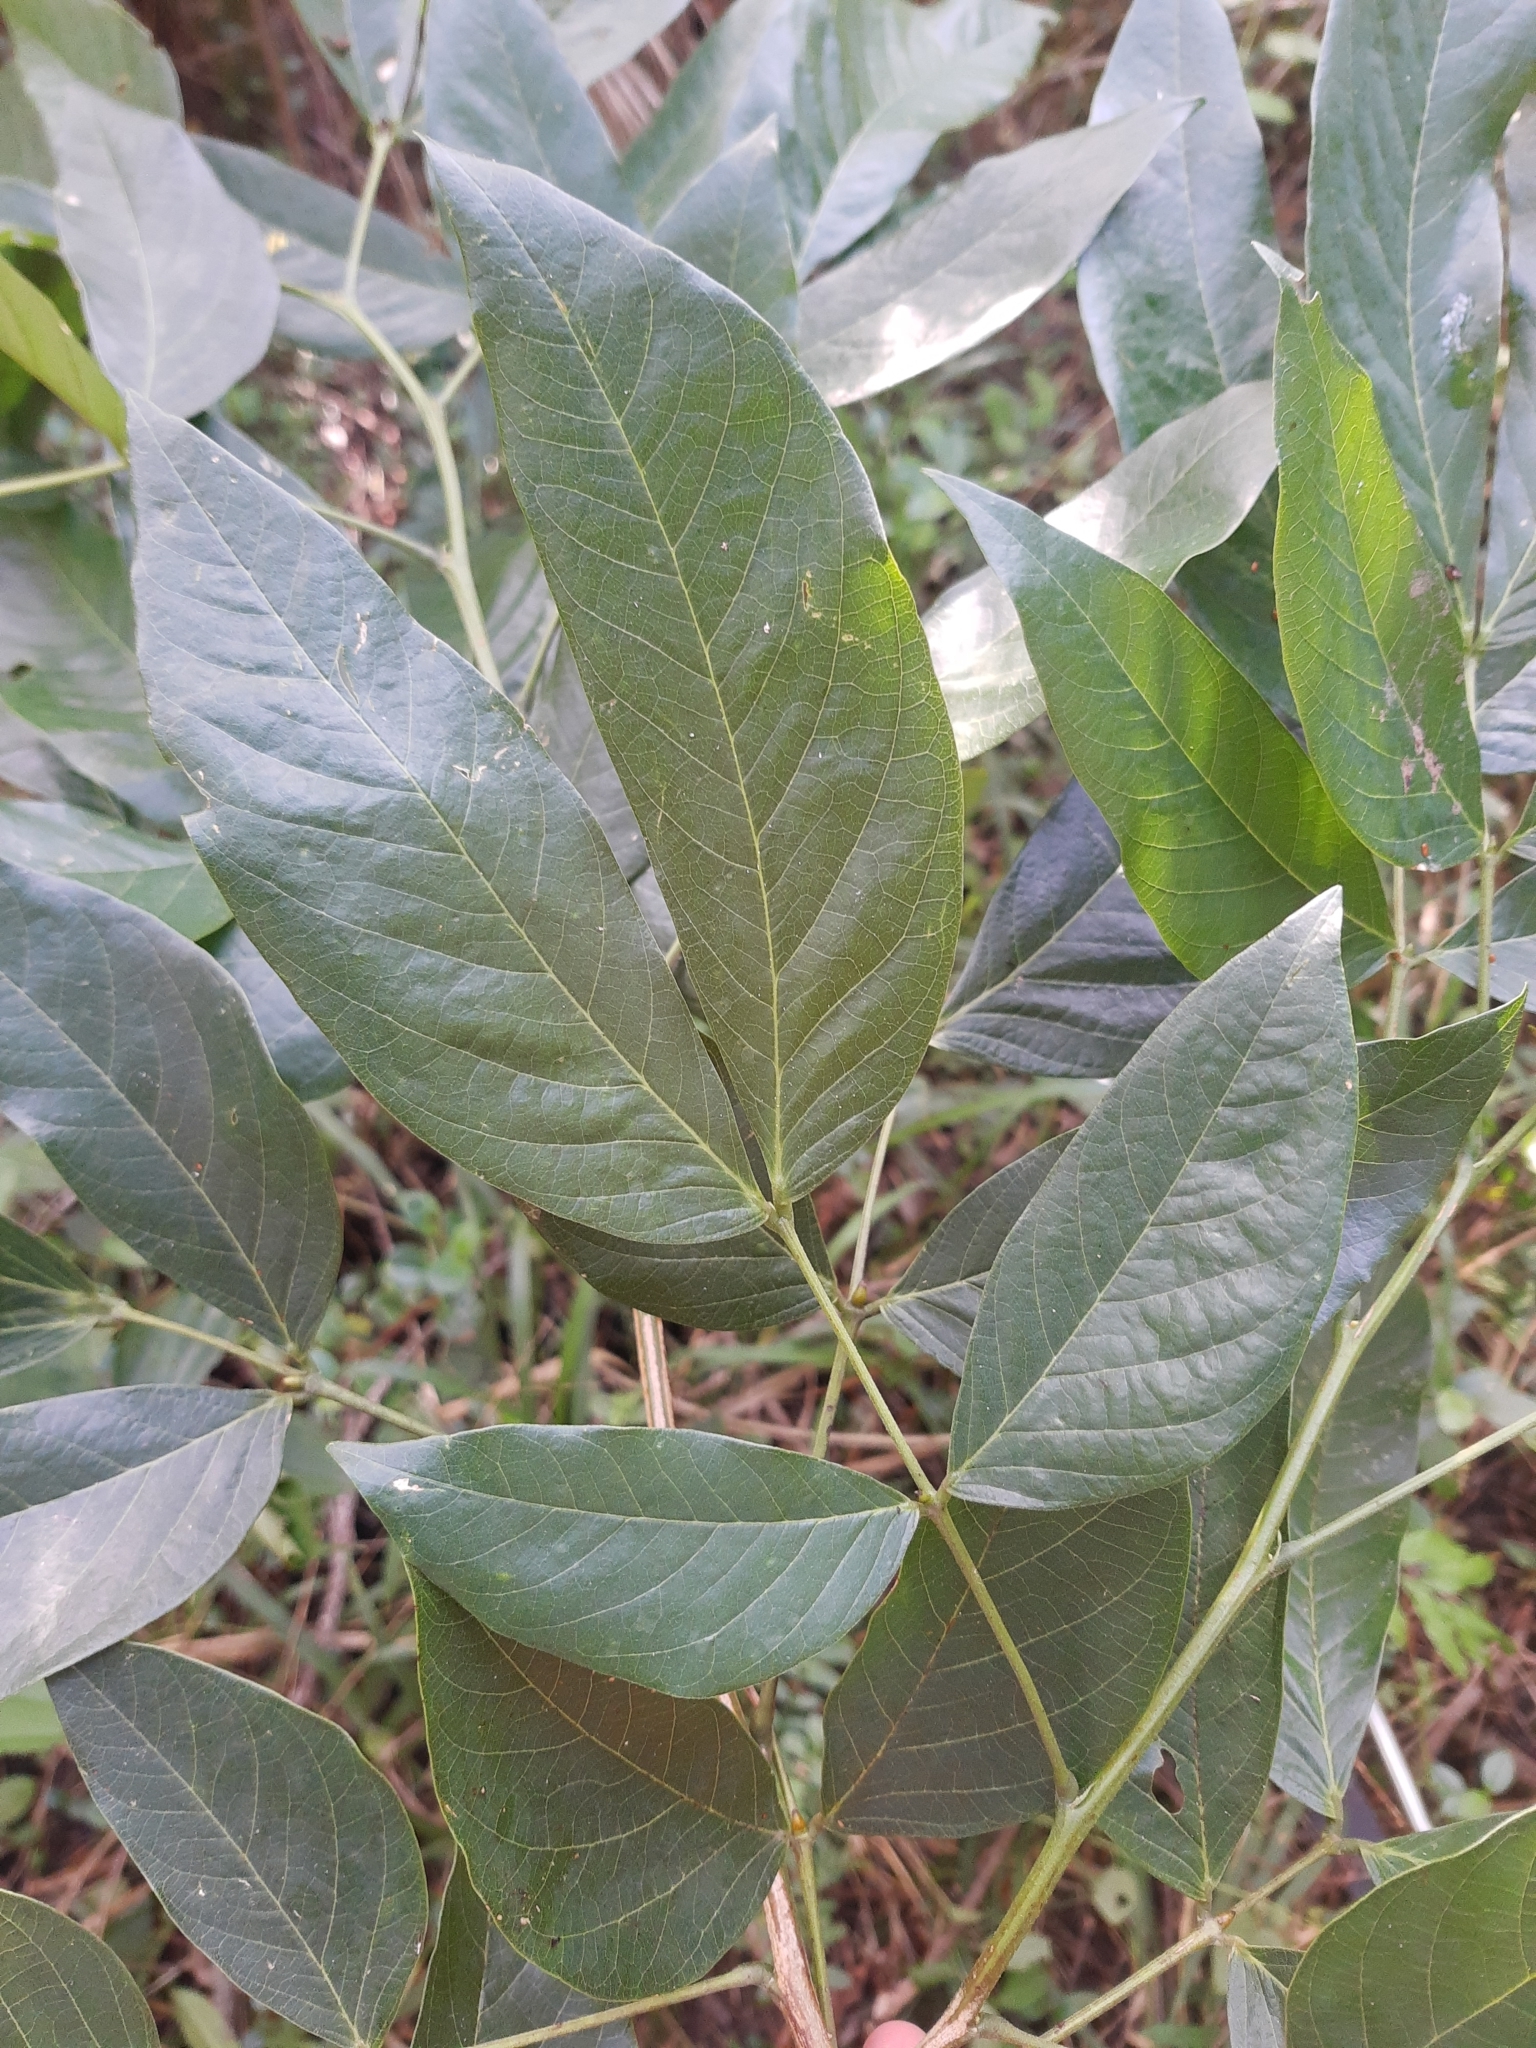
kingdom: Plantae
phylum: Tracheophyta
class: Magnoliopsida
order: Fabales
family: Fabaceae
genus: Senna
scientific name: Senna macranthera
